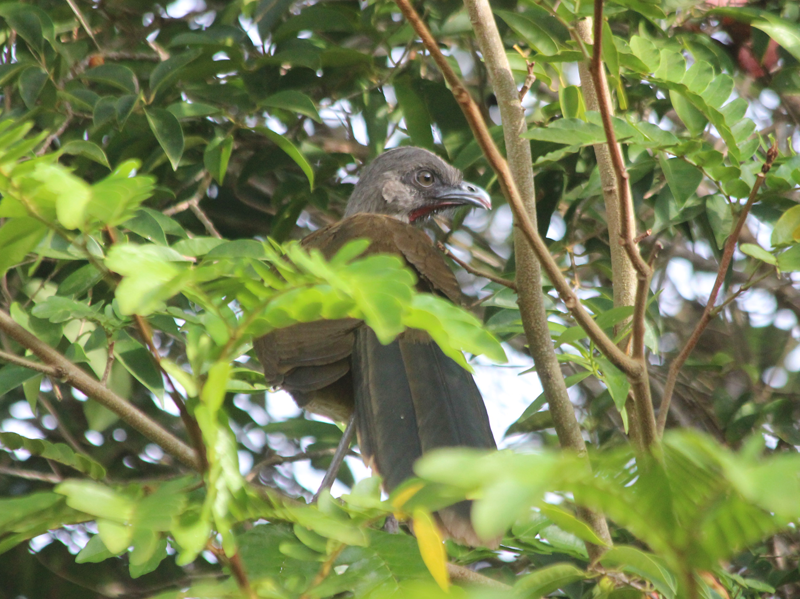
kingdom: Animalia
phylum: Chordata
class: Aves
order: Galliformes
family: Cracidae
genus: Ortalis
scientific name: Ortalis vetula
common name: Plain chachalaca
